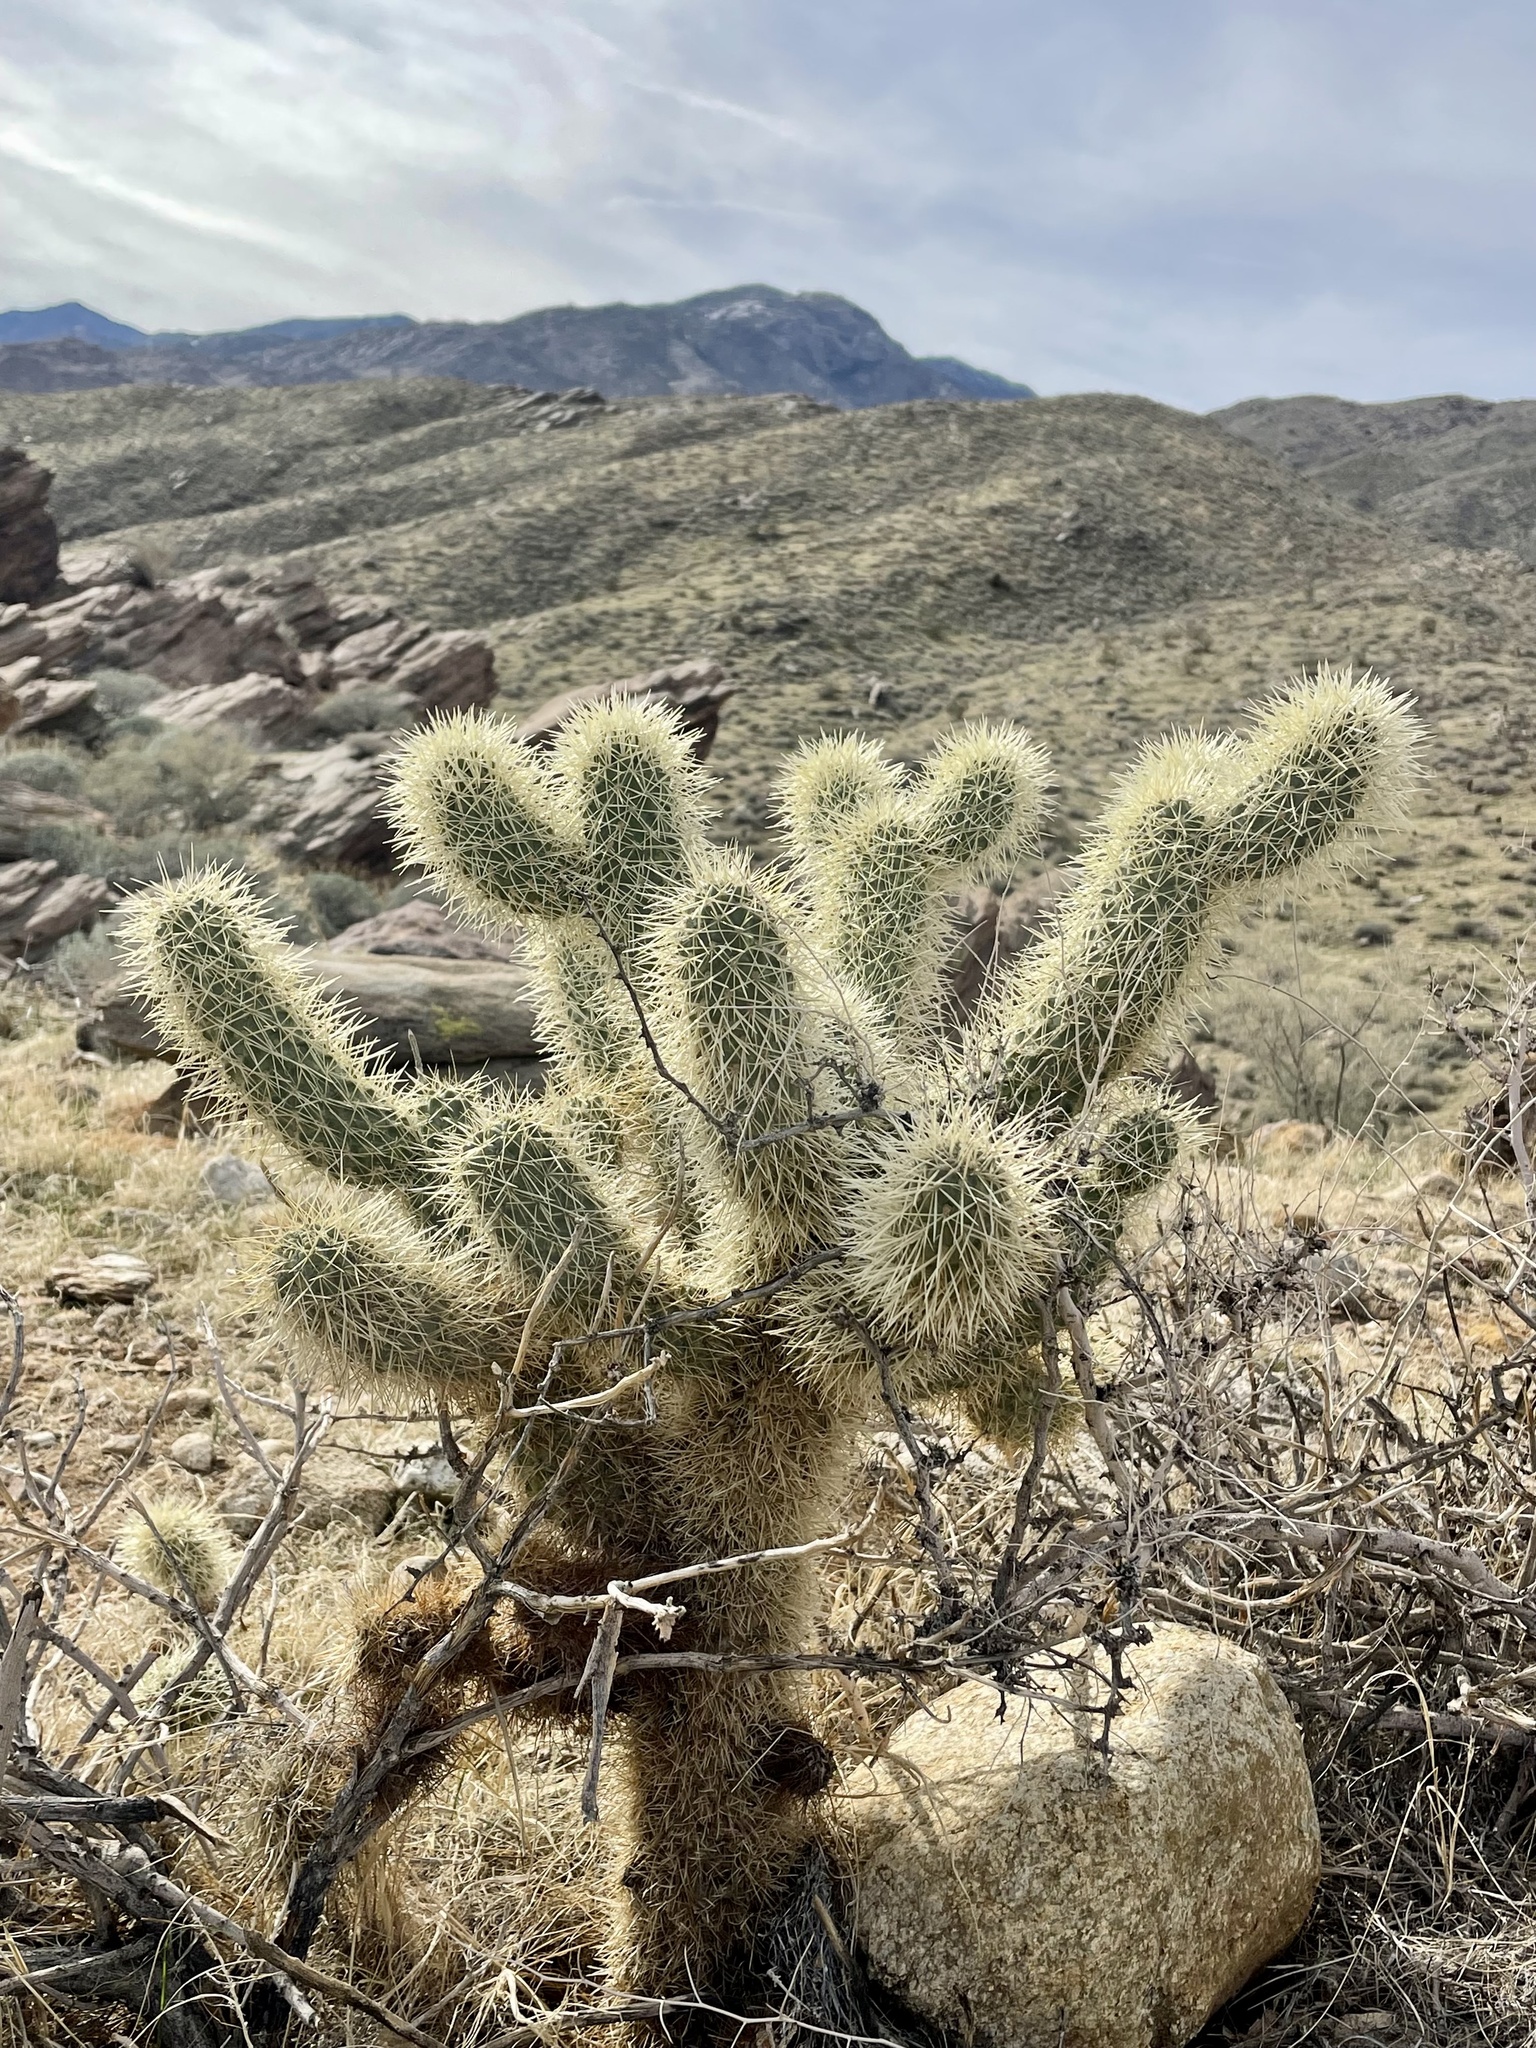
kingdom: Plantae
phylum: Tracheophyta
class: Magnoliopsida
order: Caryophyllales
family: Cactaceae
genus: Cylindropuntia
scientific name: Cylindropuntia fosbergii
